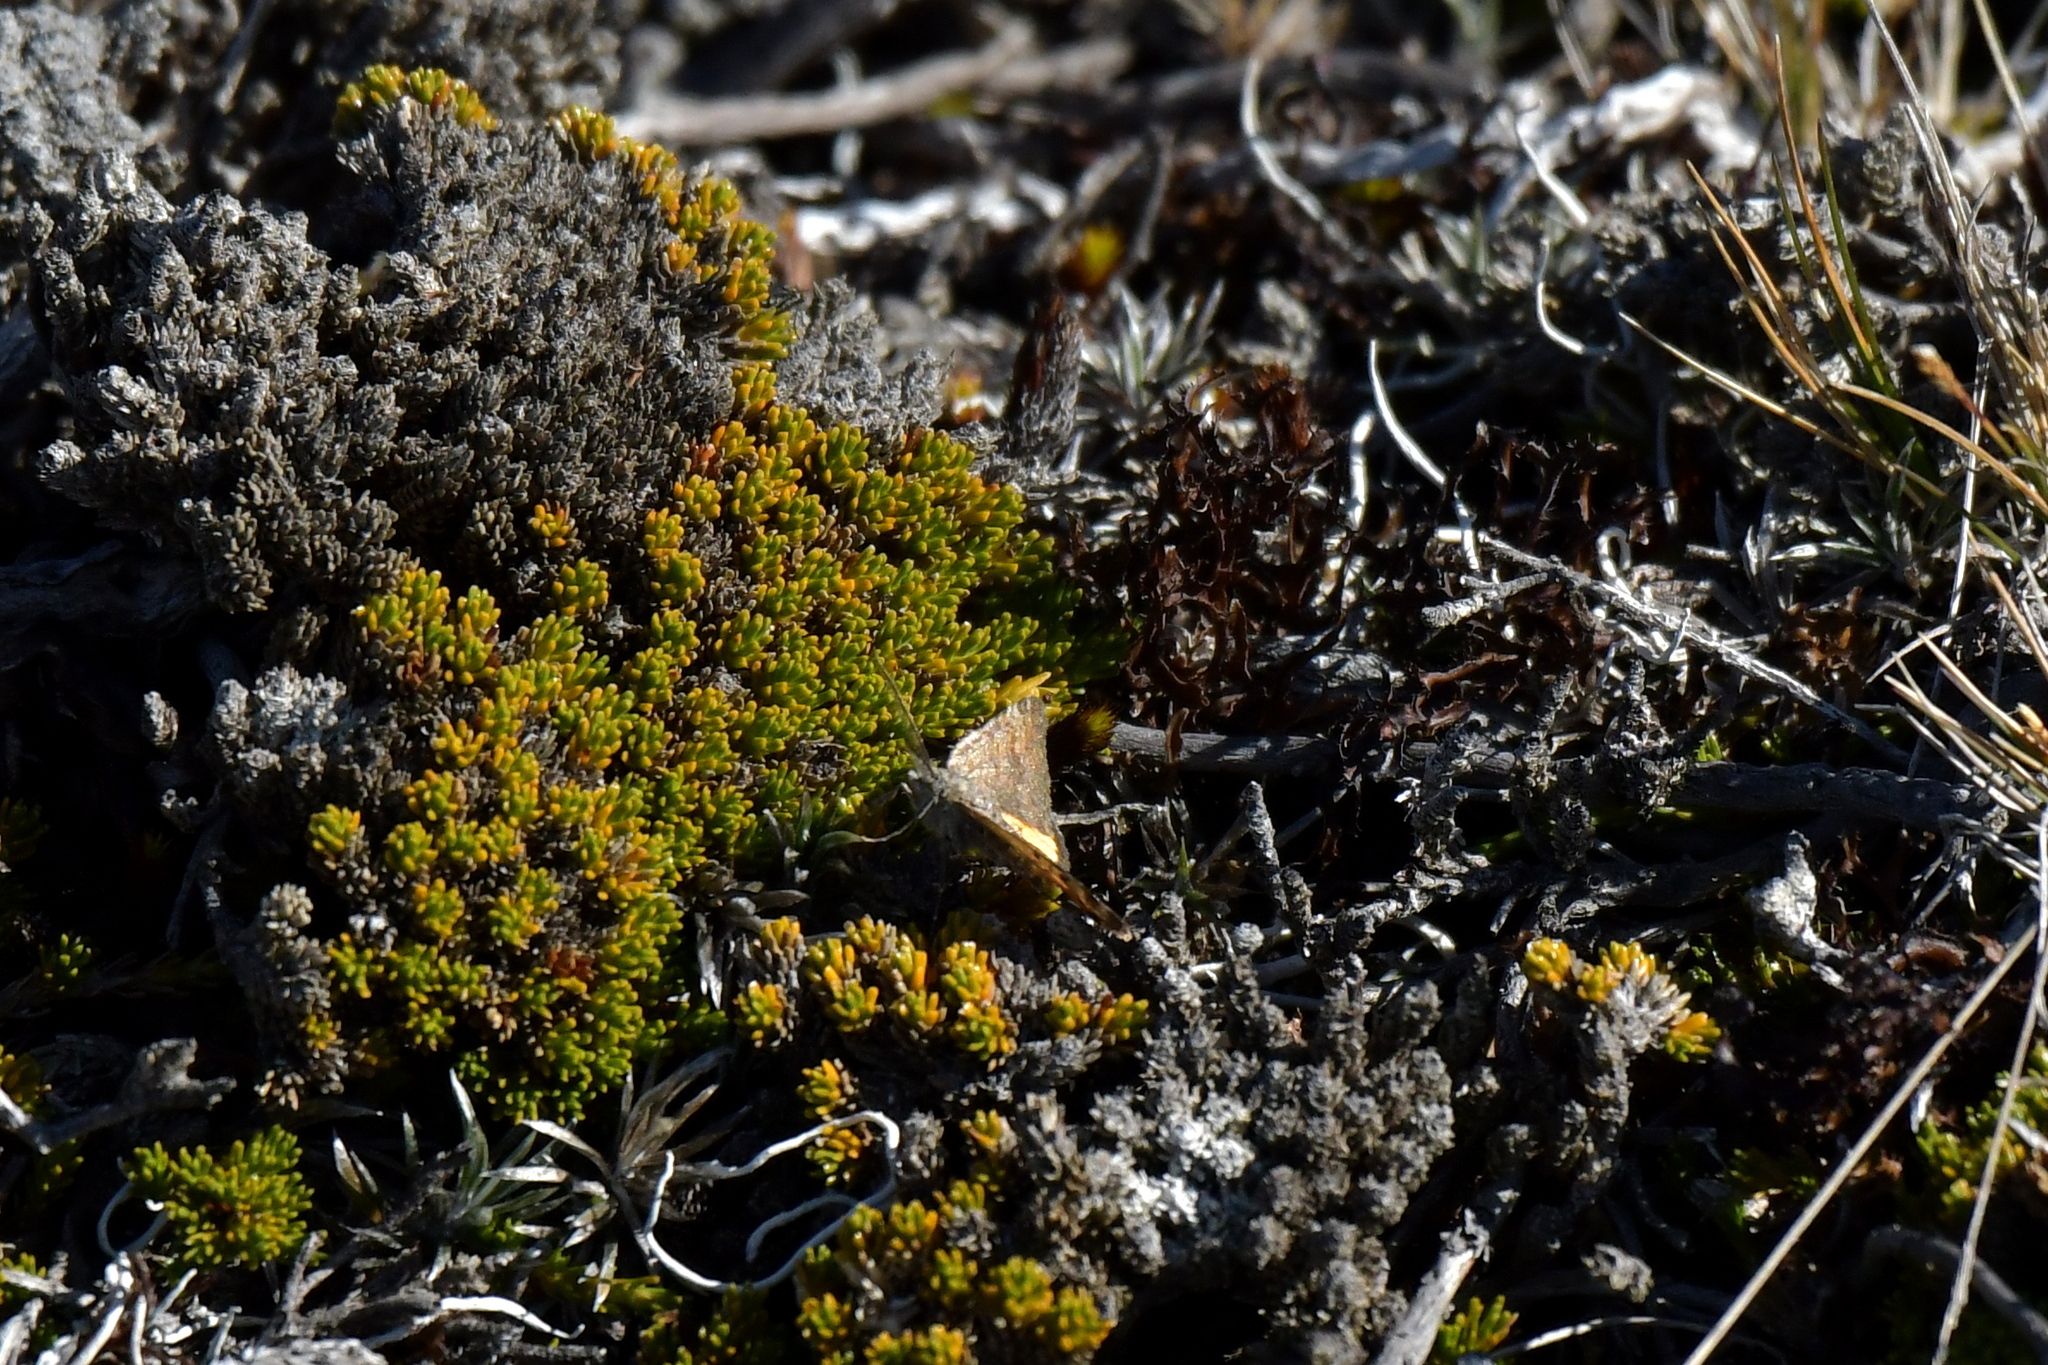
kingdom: Animalia
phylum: Arthropoda
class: Insecta
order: Lepidoptera
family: Geometridae
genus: Paranotoreas
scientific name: Paranotoreas brephosata
